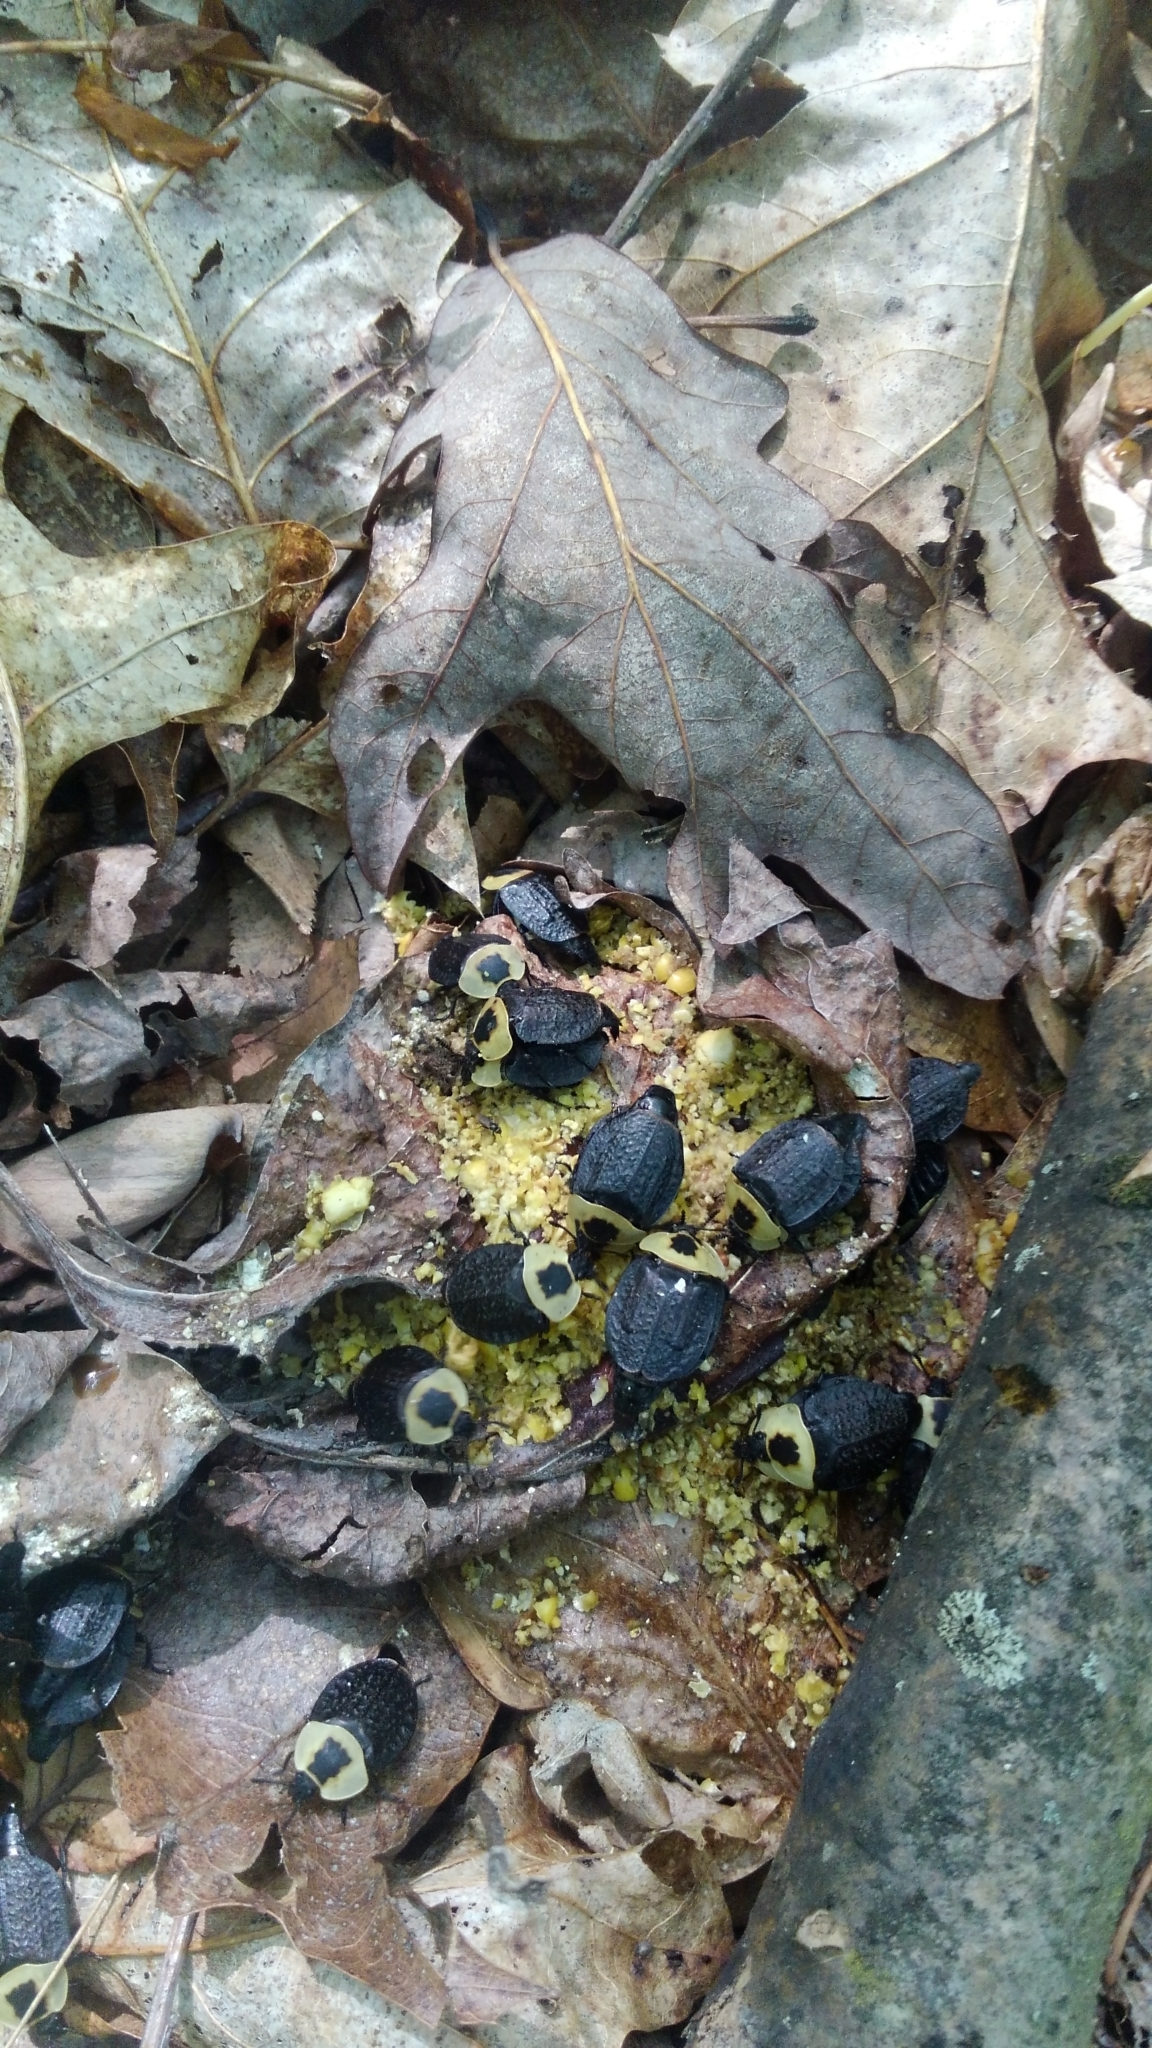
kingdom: Animalia
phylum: Arthropoda
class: Insecta
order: Coleoptera
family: Staphylinidae
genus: Necrophila
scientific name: Necrophila americana
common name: American carrion beetle
